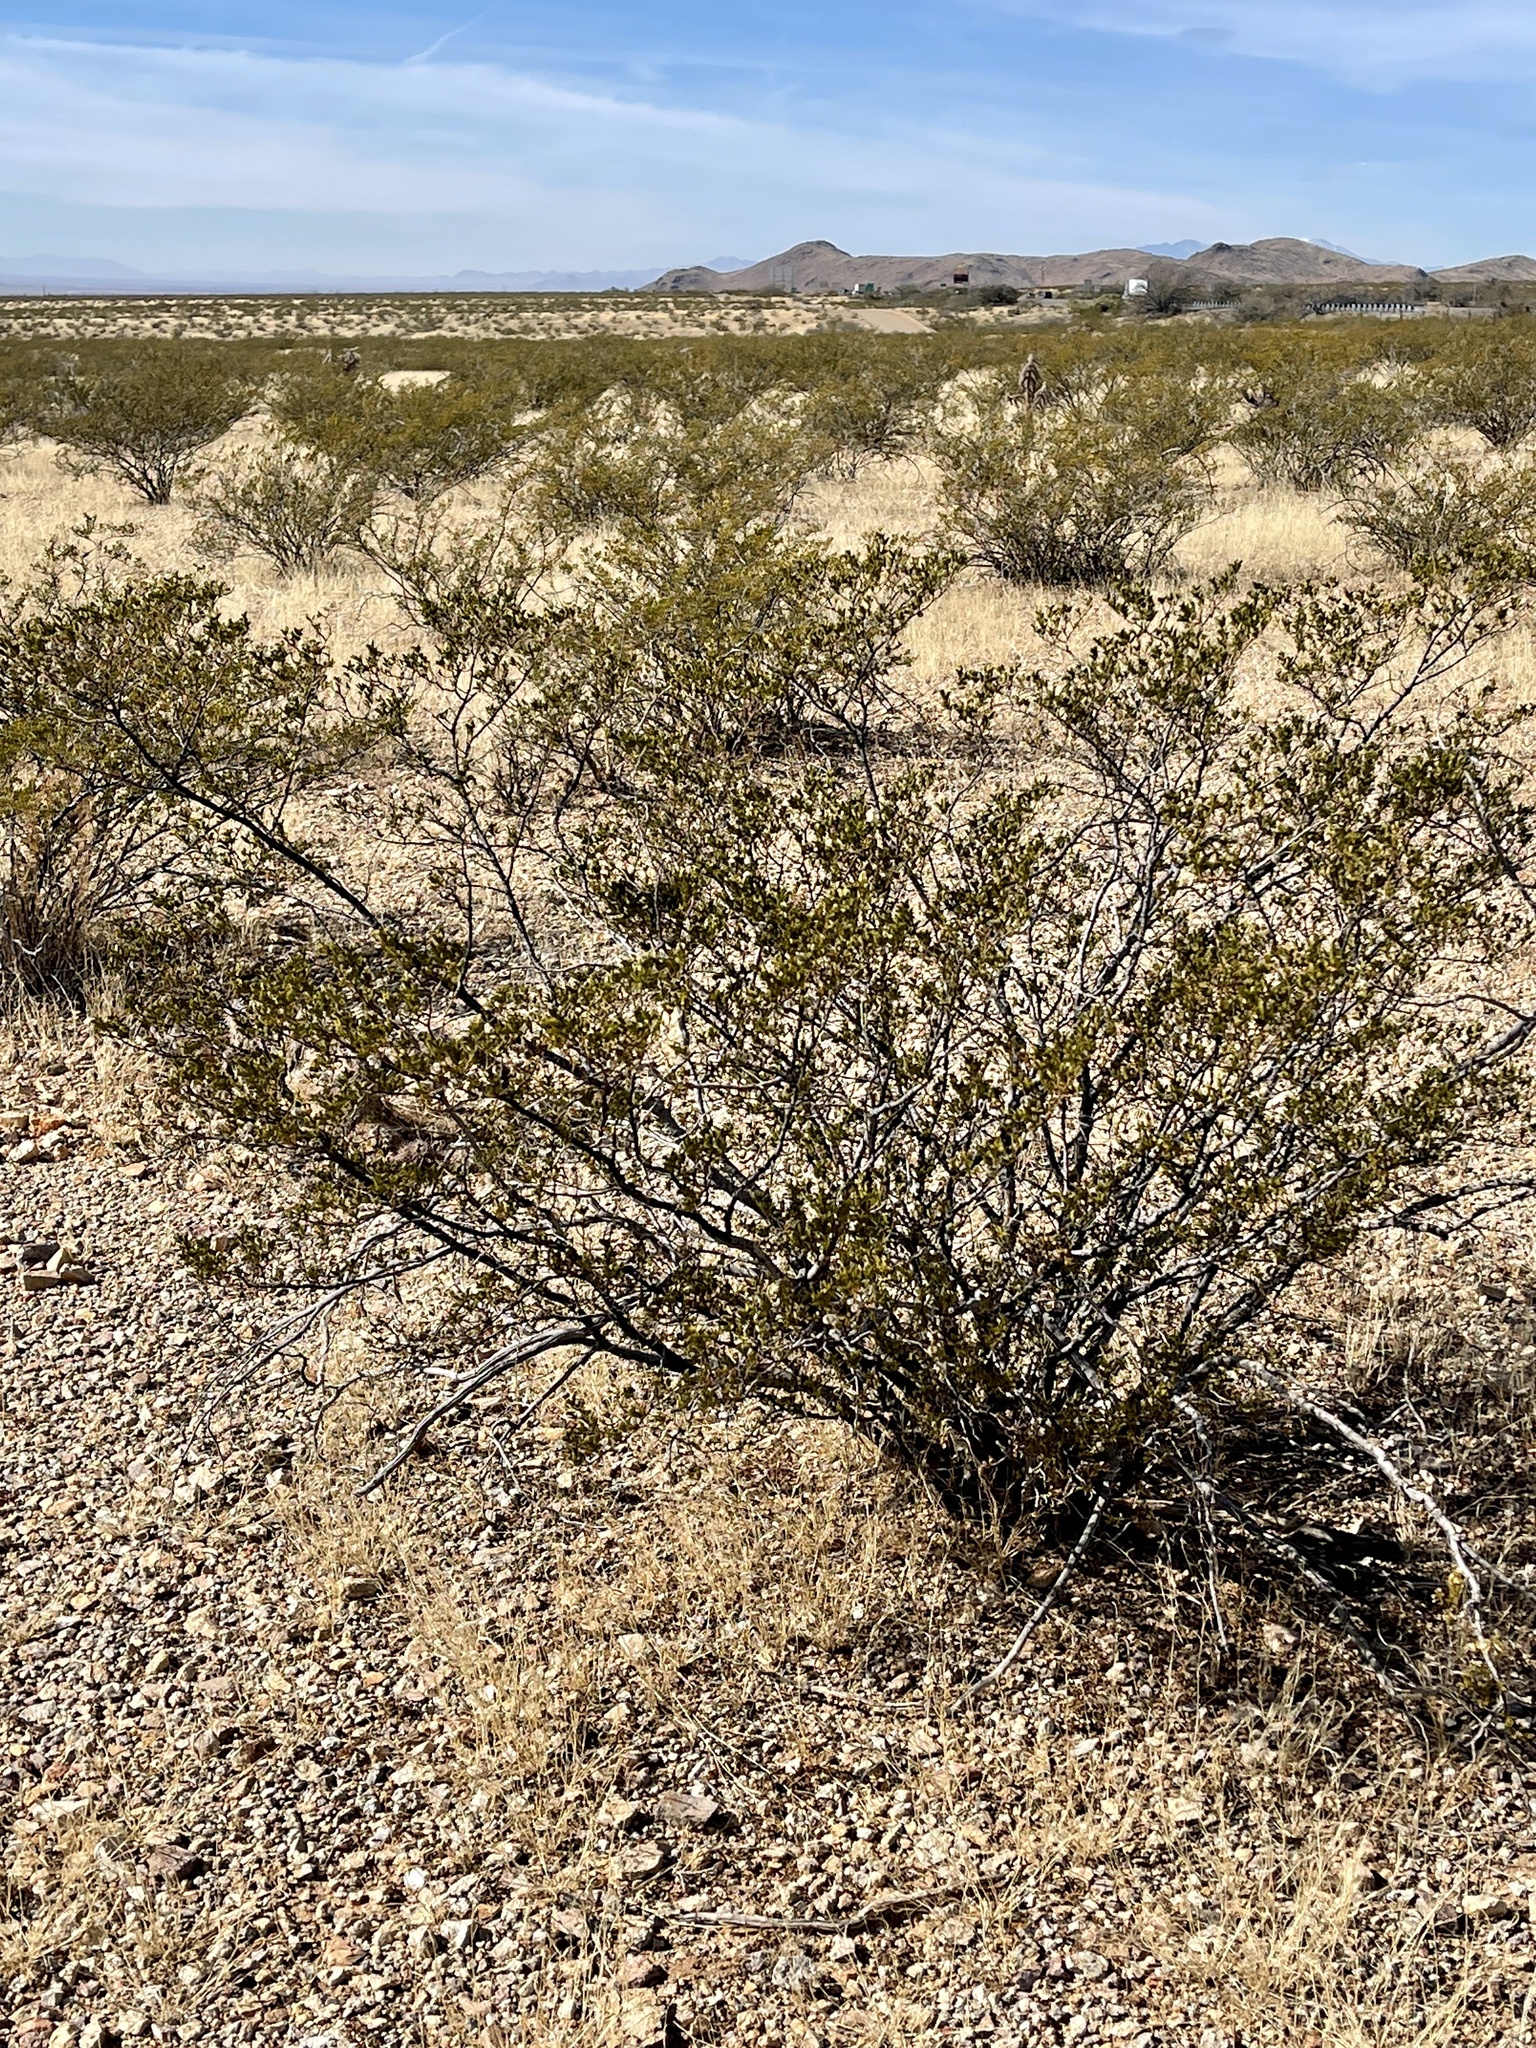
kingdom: Plantae
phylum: Tracheophyta
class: Magnoliopsida
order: Zygophyllales
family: Zygophyllaceae
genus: Larrea
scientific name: Larrea tridentata
